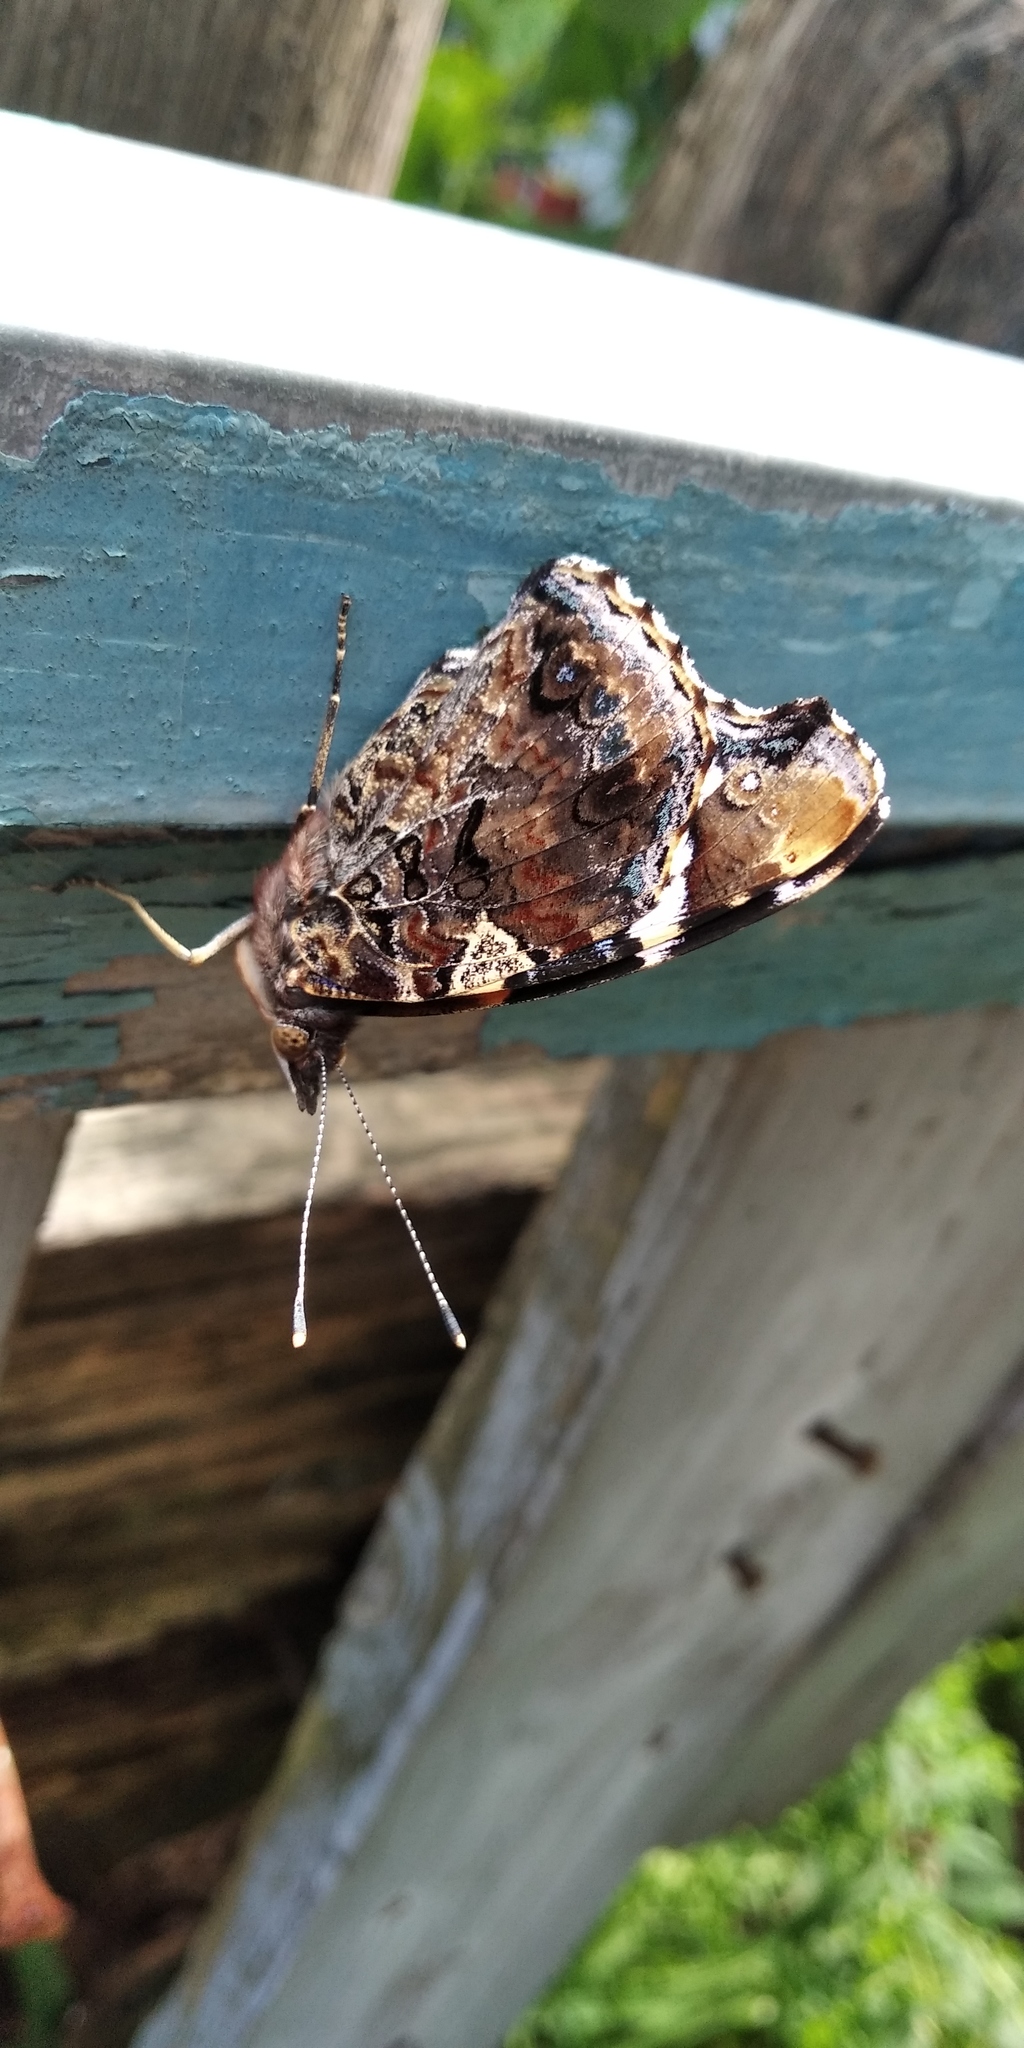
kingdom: Animalia
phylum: Arthropoda
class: Insecta
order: Lepidoptera
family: Nymphalidae
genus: Vanessa
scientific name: Vanessa atalanta
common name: Red admiral
